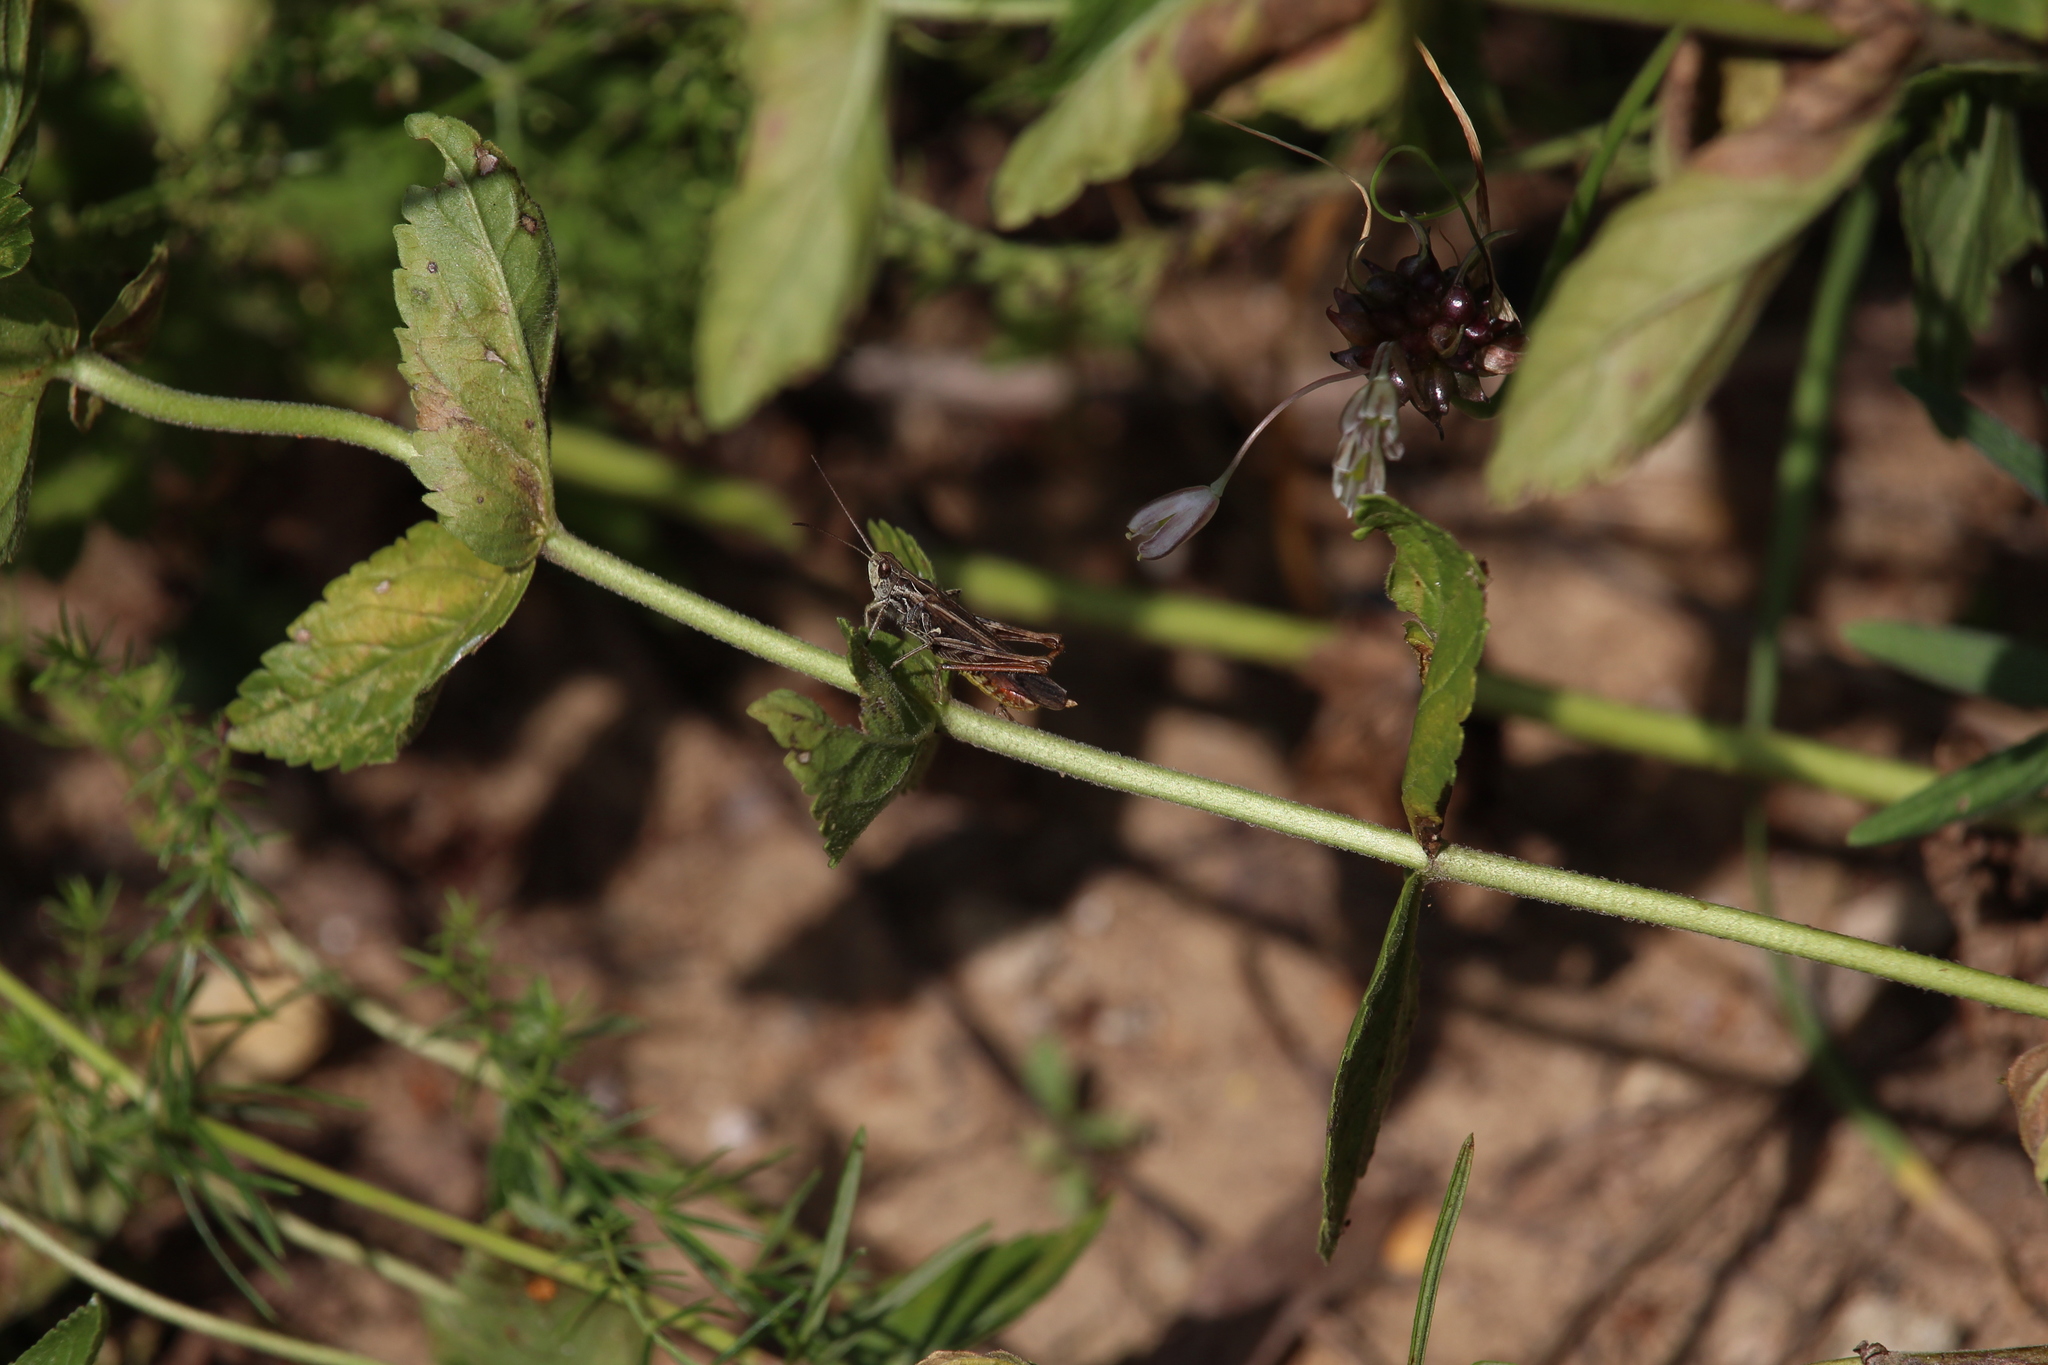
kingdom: Animalia
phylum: Arthropoda
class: Insecta
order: Orthoptera
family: Acrididae
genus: Chorthippus
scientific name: Chorthippus biguttulus
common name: Bow-winged grasshopper
